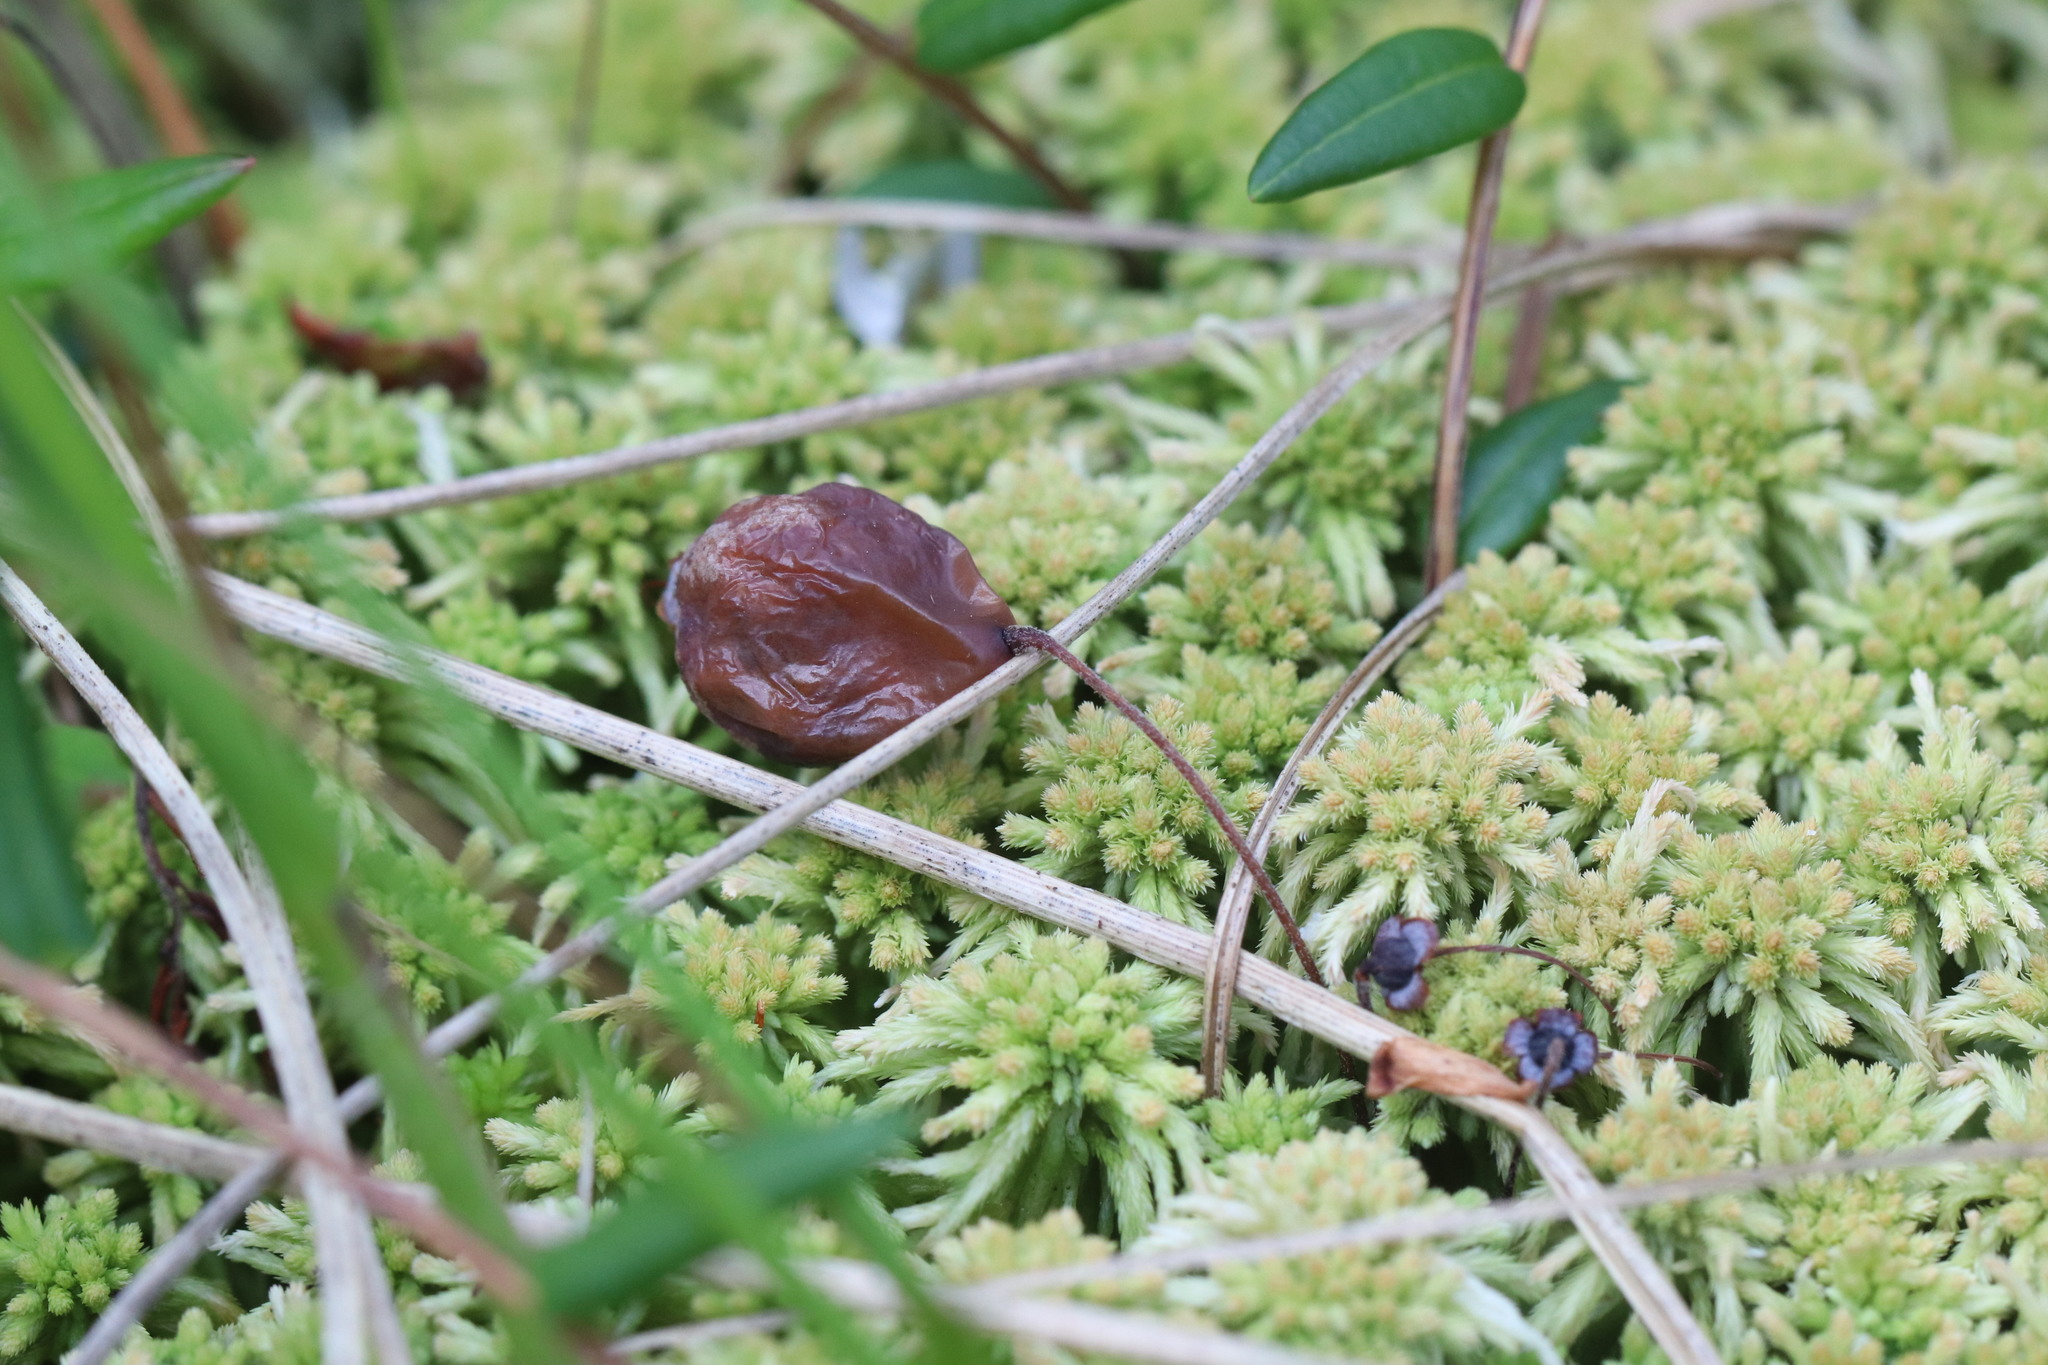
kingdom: Fungi
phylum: Ascomycota
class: Leotiomycetes
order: Helotiales
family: Sclerotiniaceae
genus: Monilinia
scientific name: Monilinia oxycocci
